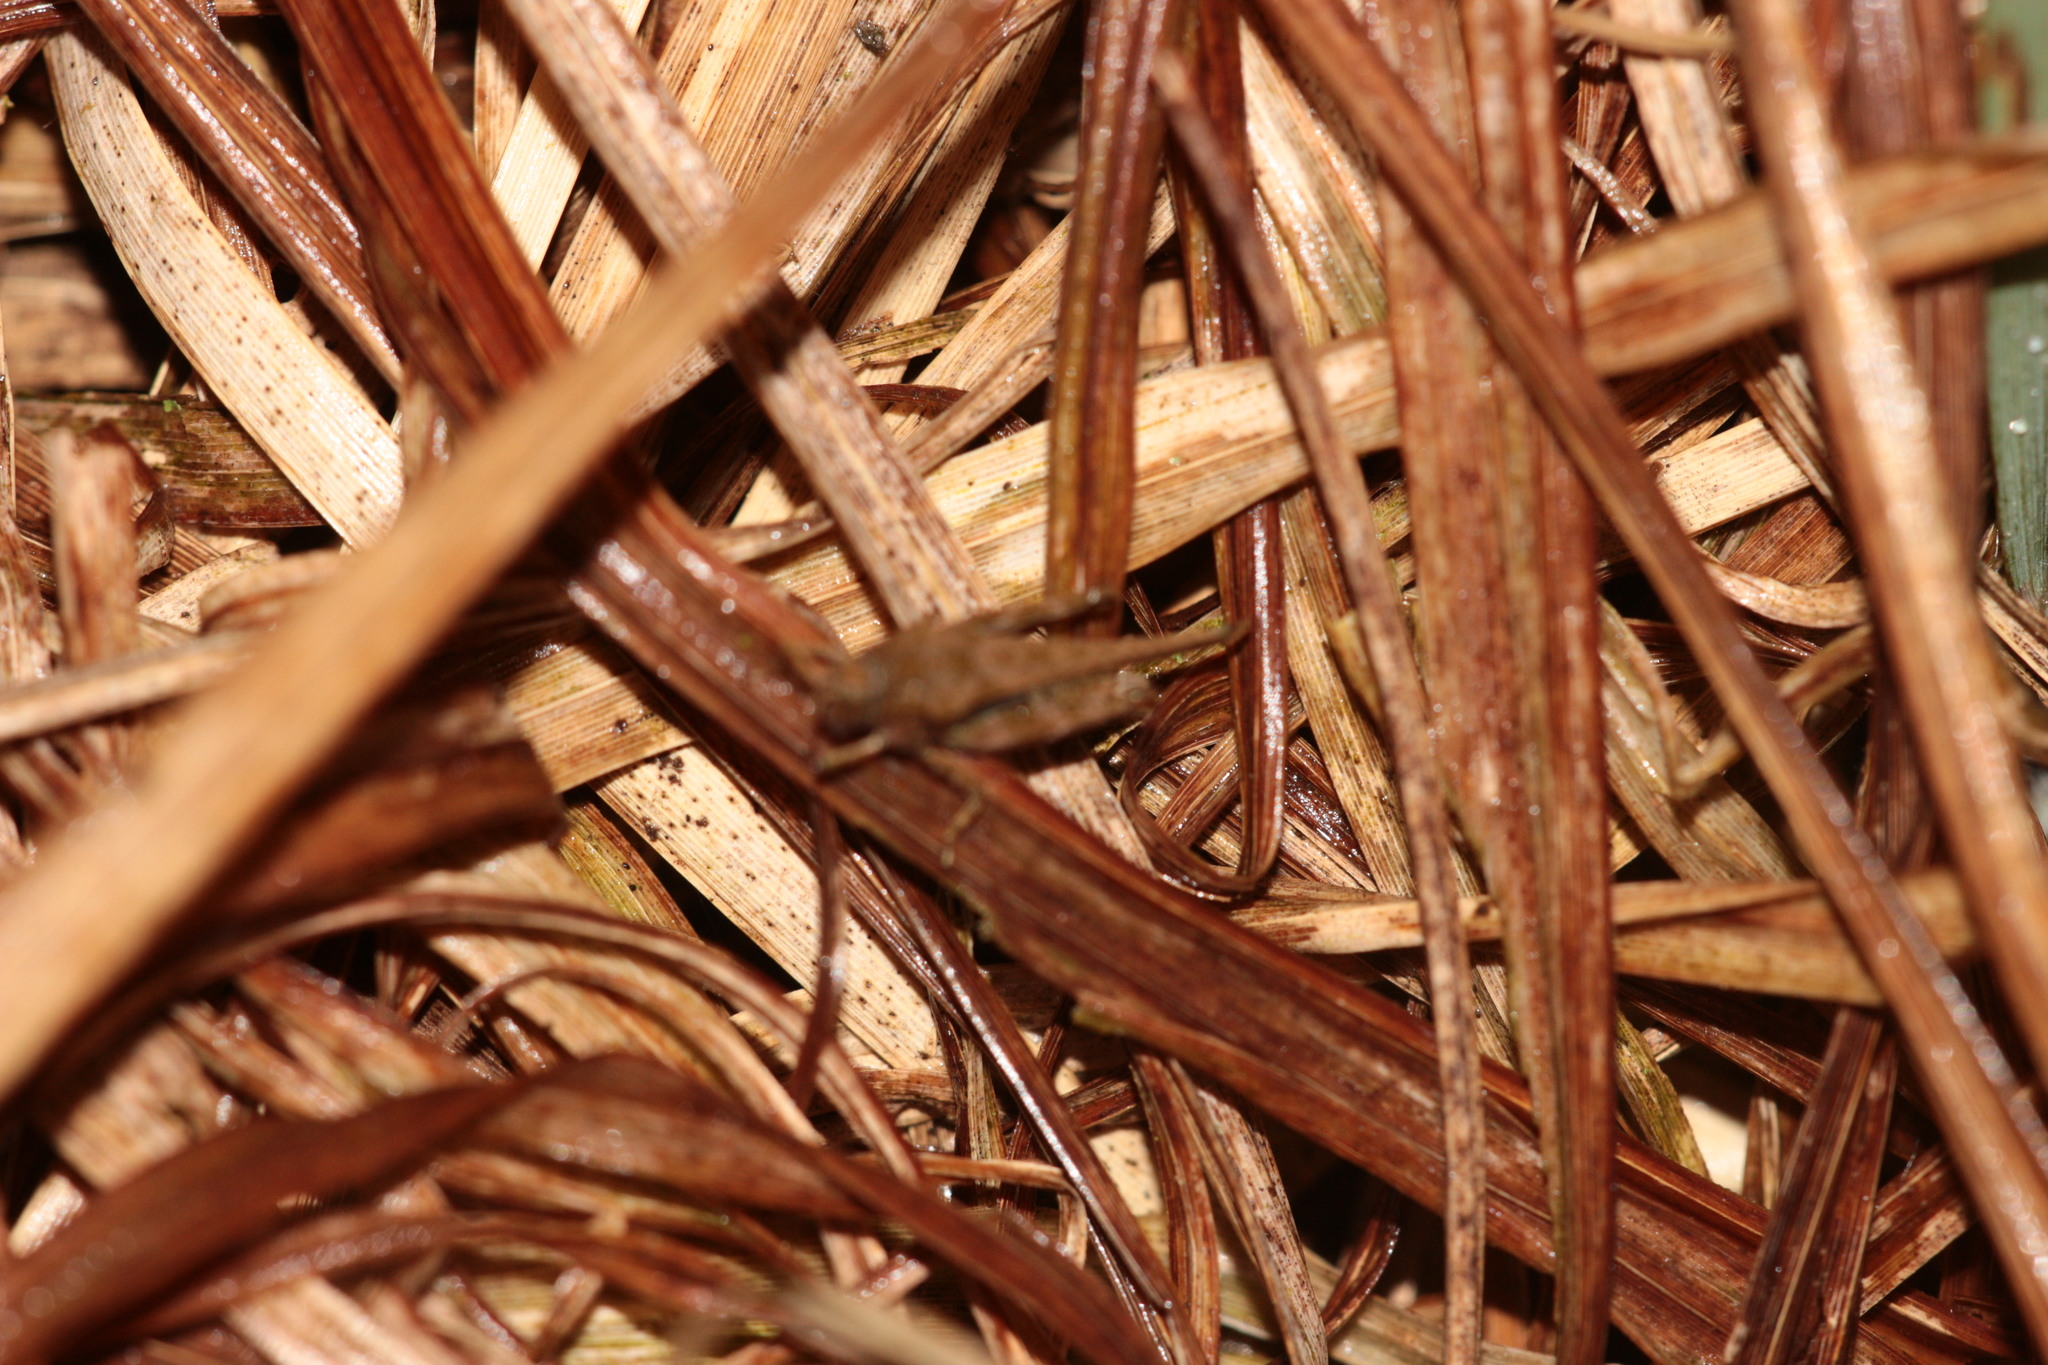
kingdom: Animalia
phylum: Arthropoda
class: Insecta
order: Orthoptera
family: Tetrigidae
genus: Tetrix
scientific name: Tetrix subulata
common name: Slender ground-hopper
